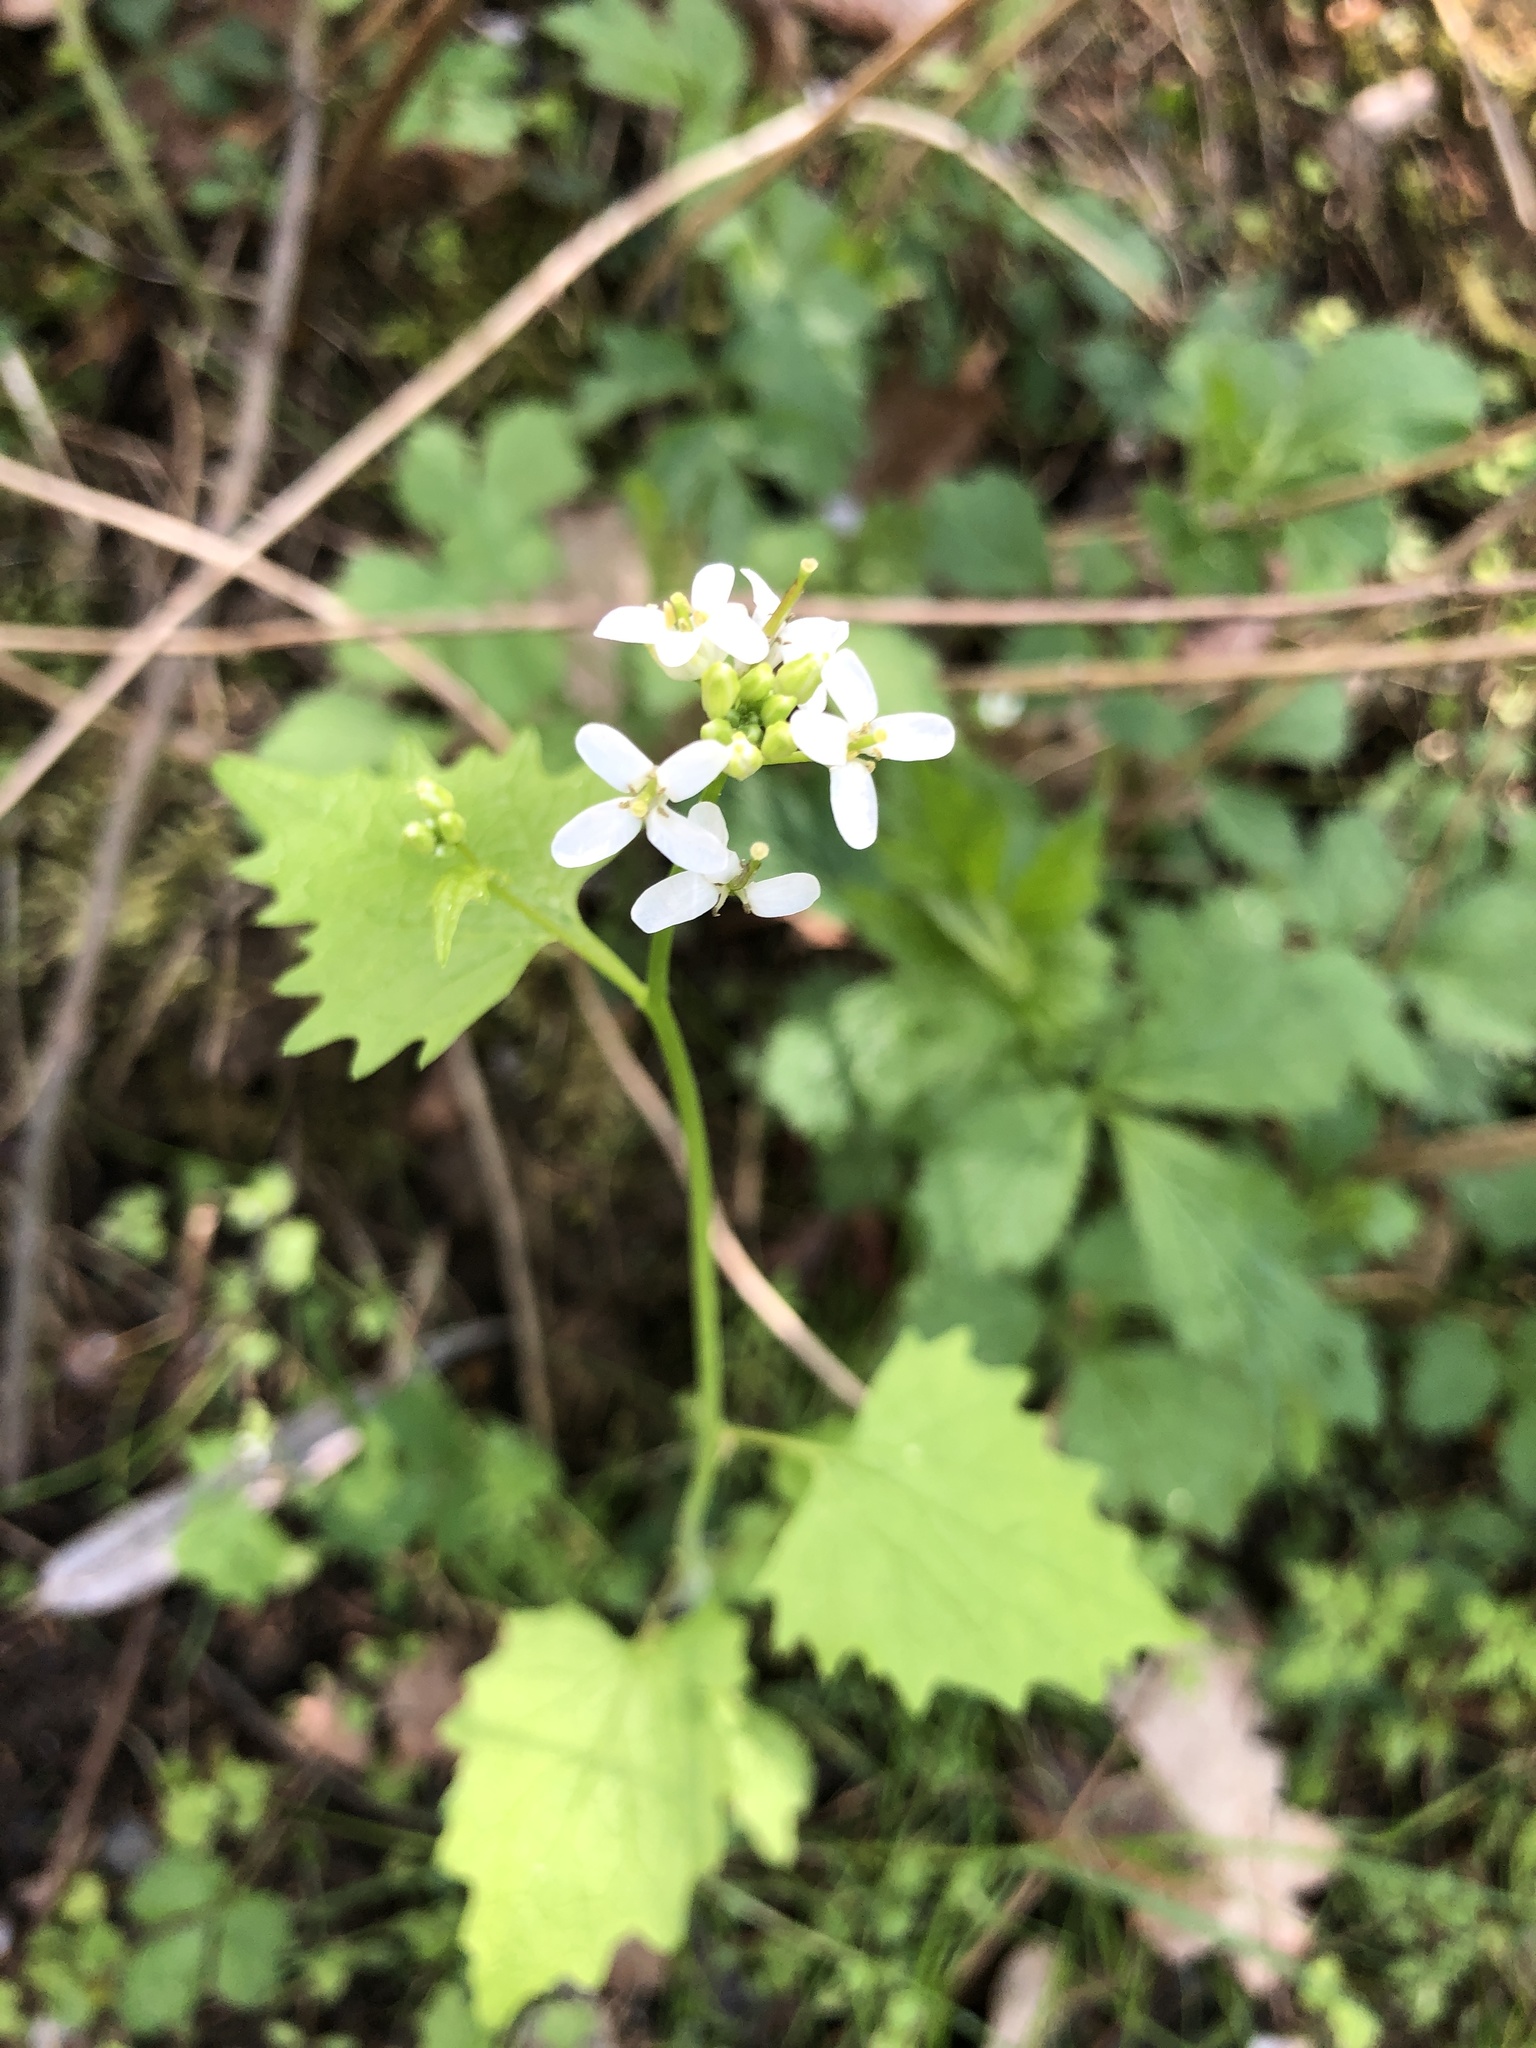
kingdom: Plantae
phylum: Tracheophyta
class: Magnoliopsida
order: Brassicales
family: Brassicaceae
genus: Alliaria
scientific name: Alliaria petiolata
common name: Garlic mustard
